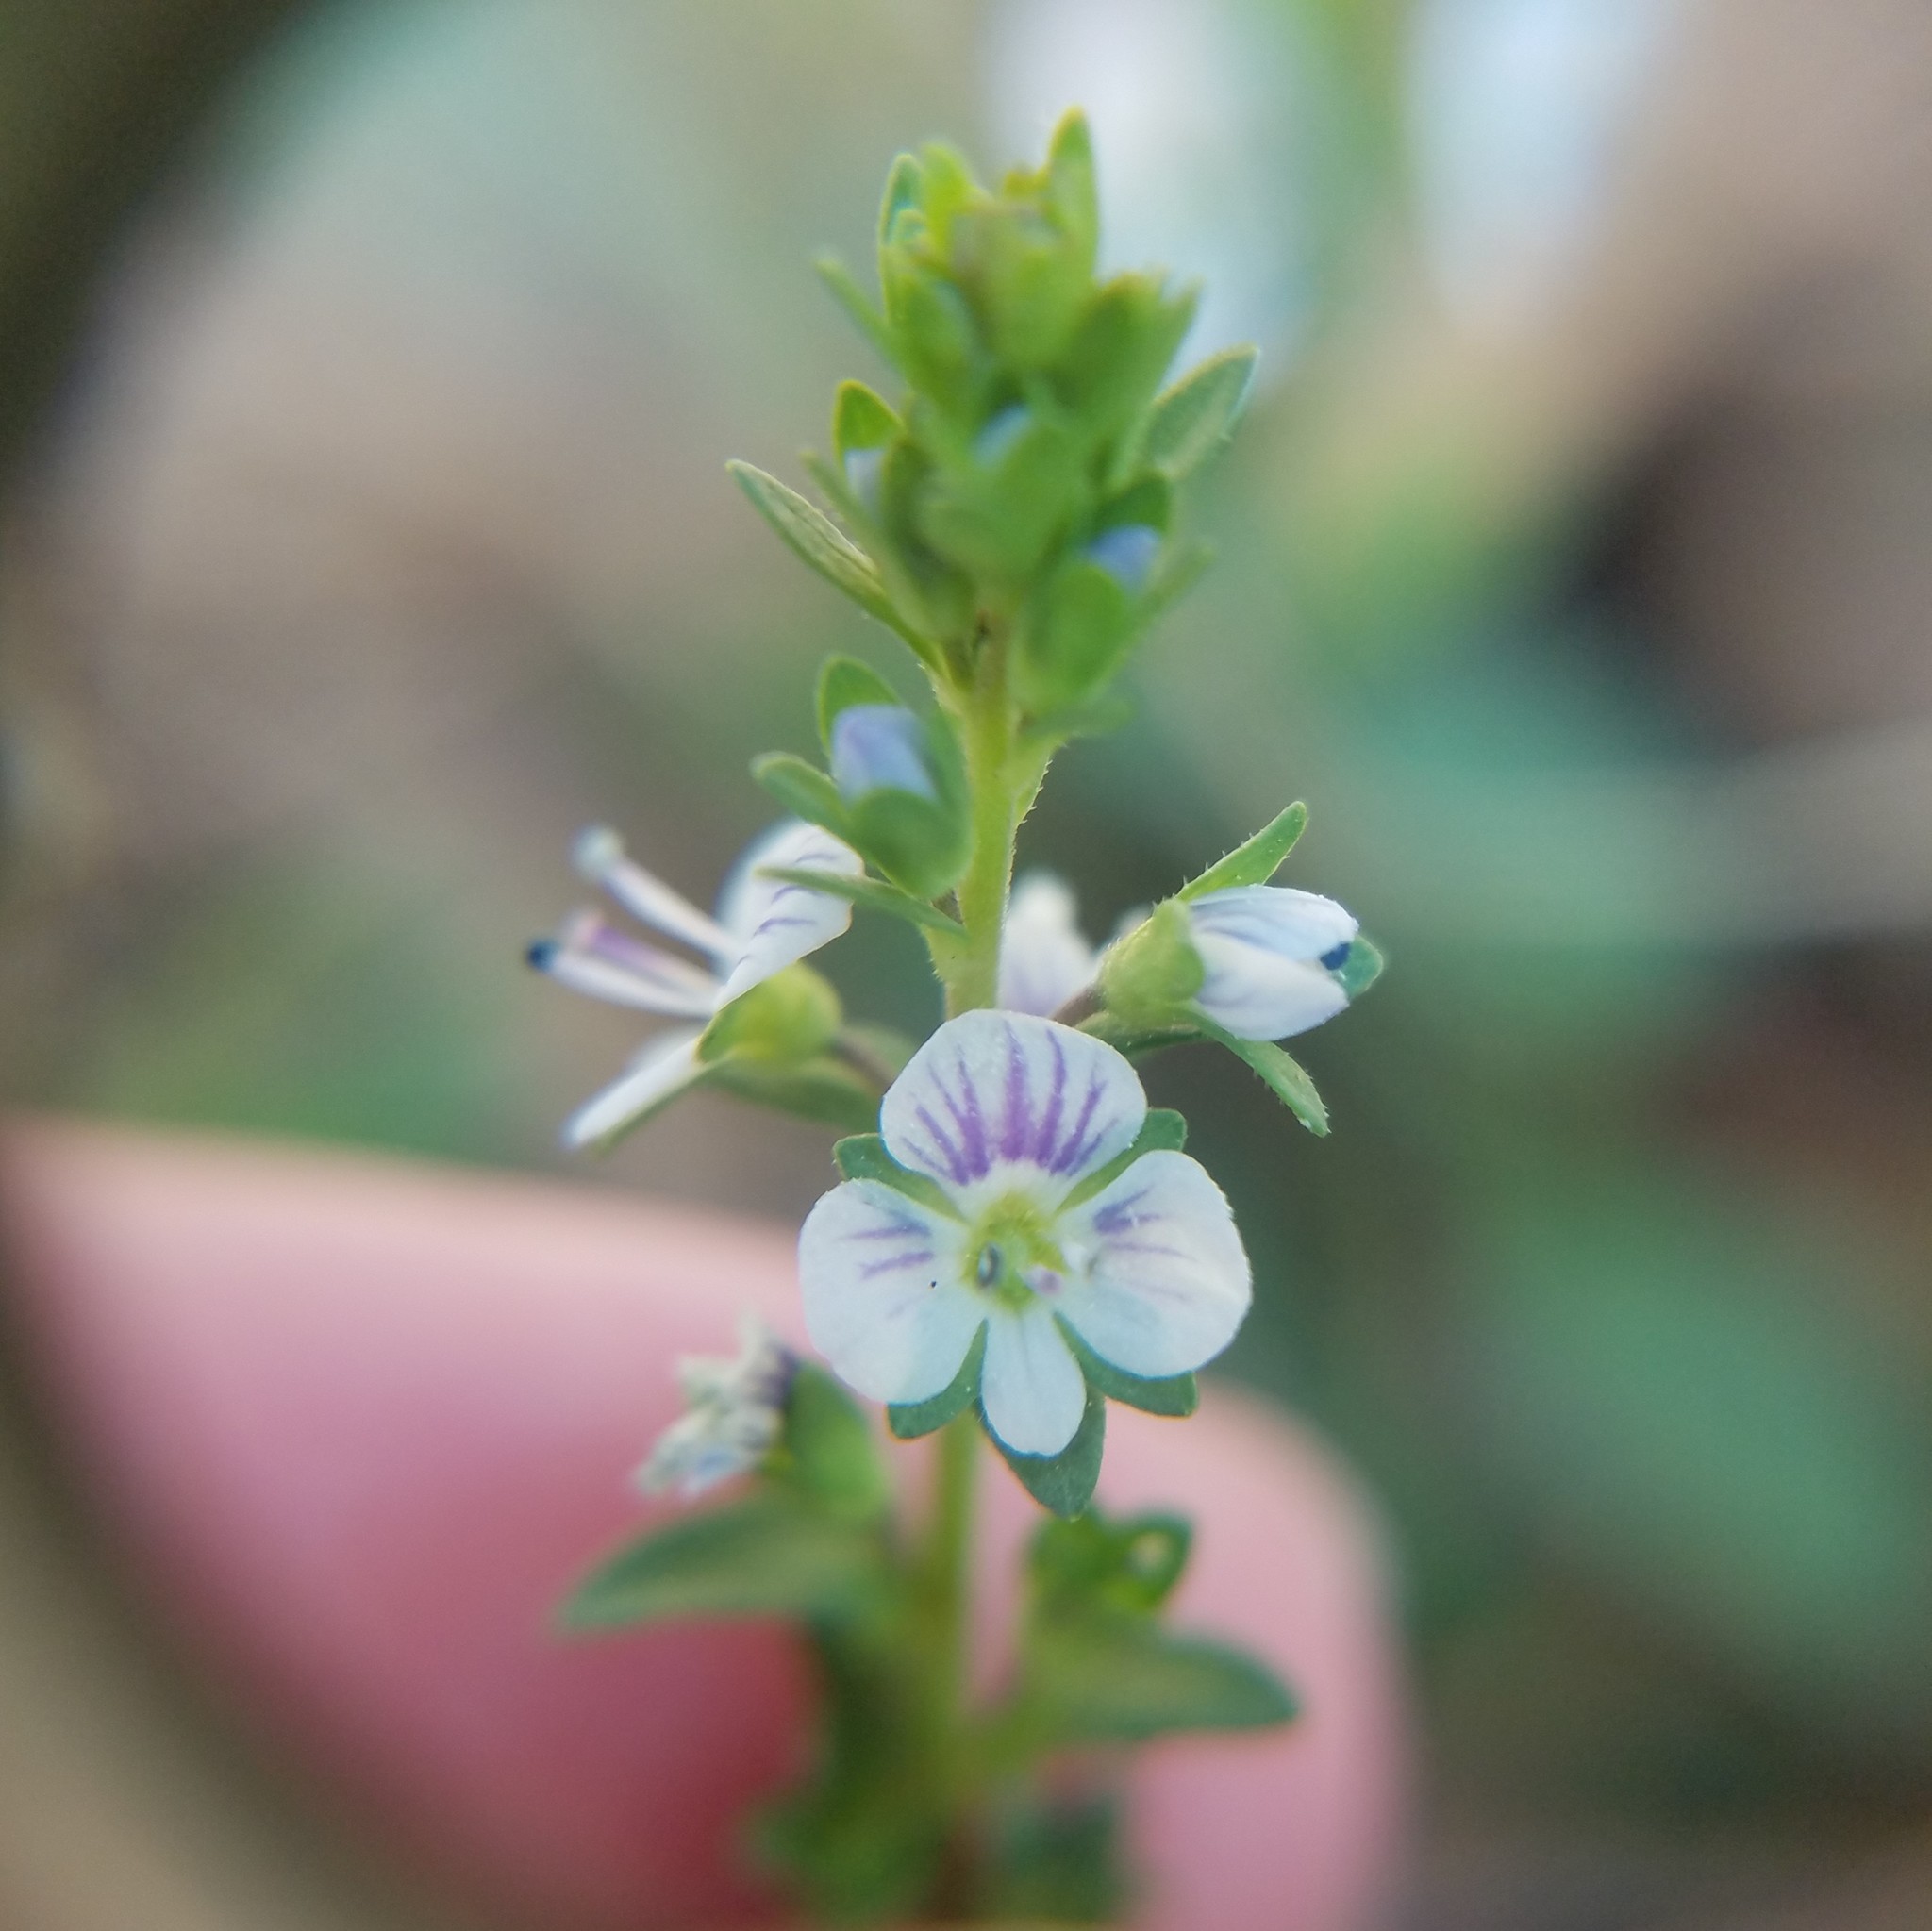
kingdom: Plantae
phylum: Tracheophyta
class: Magnoliopsida
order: Lamiales
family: Plantaginaceae
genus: Veronica
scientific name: Veronica serpyllifolia
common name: Thyme-leaved speedwell
